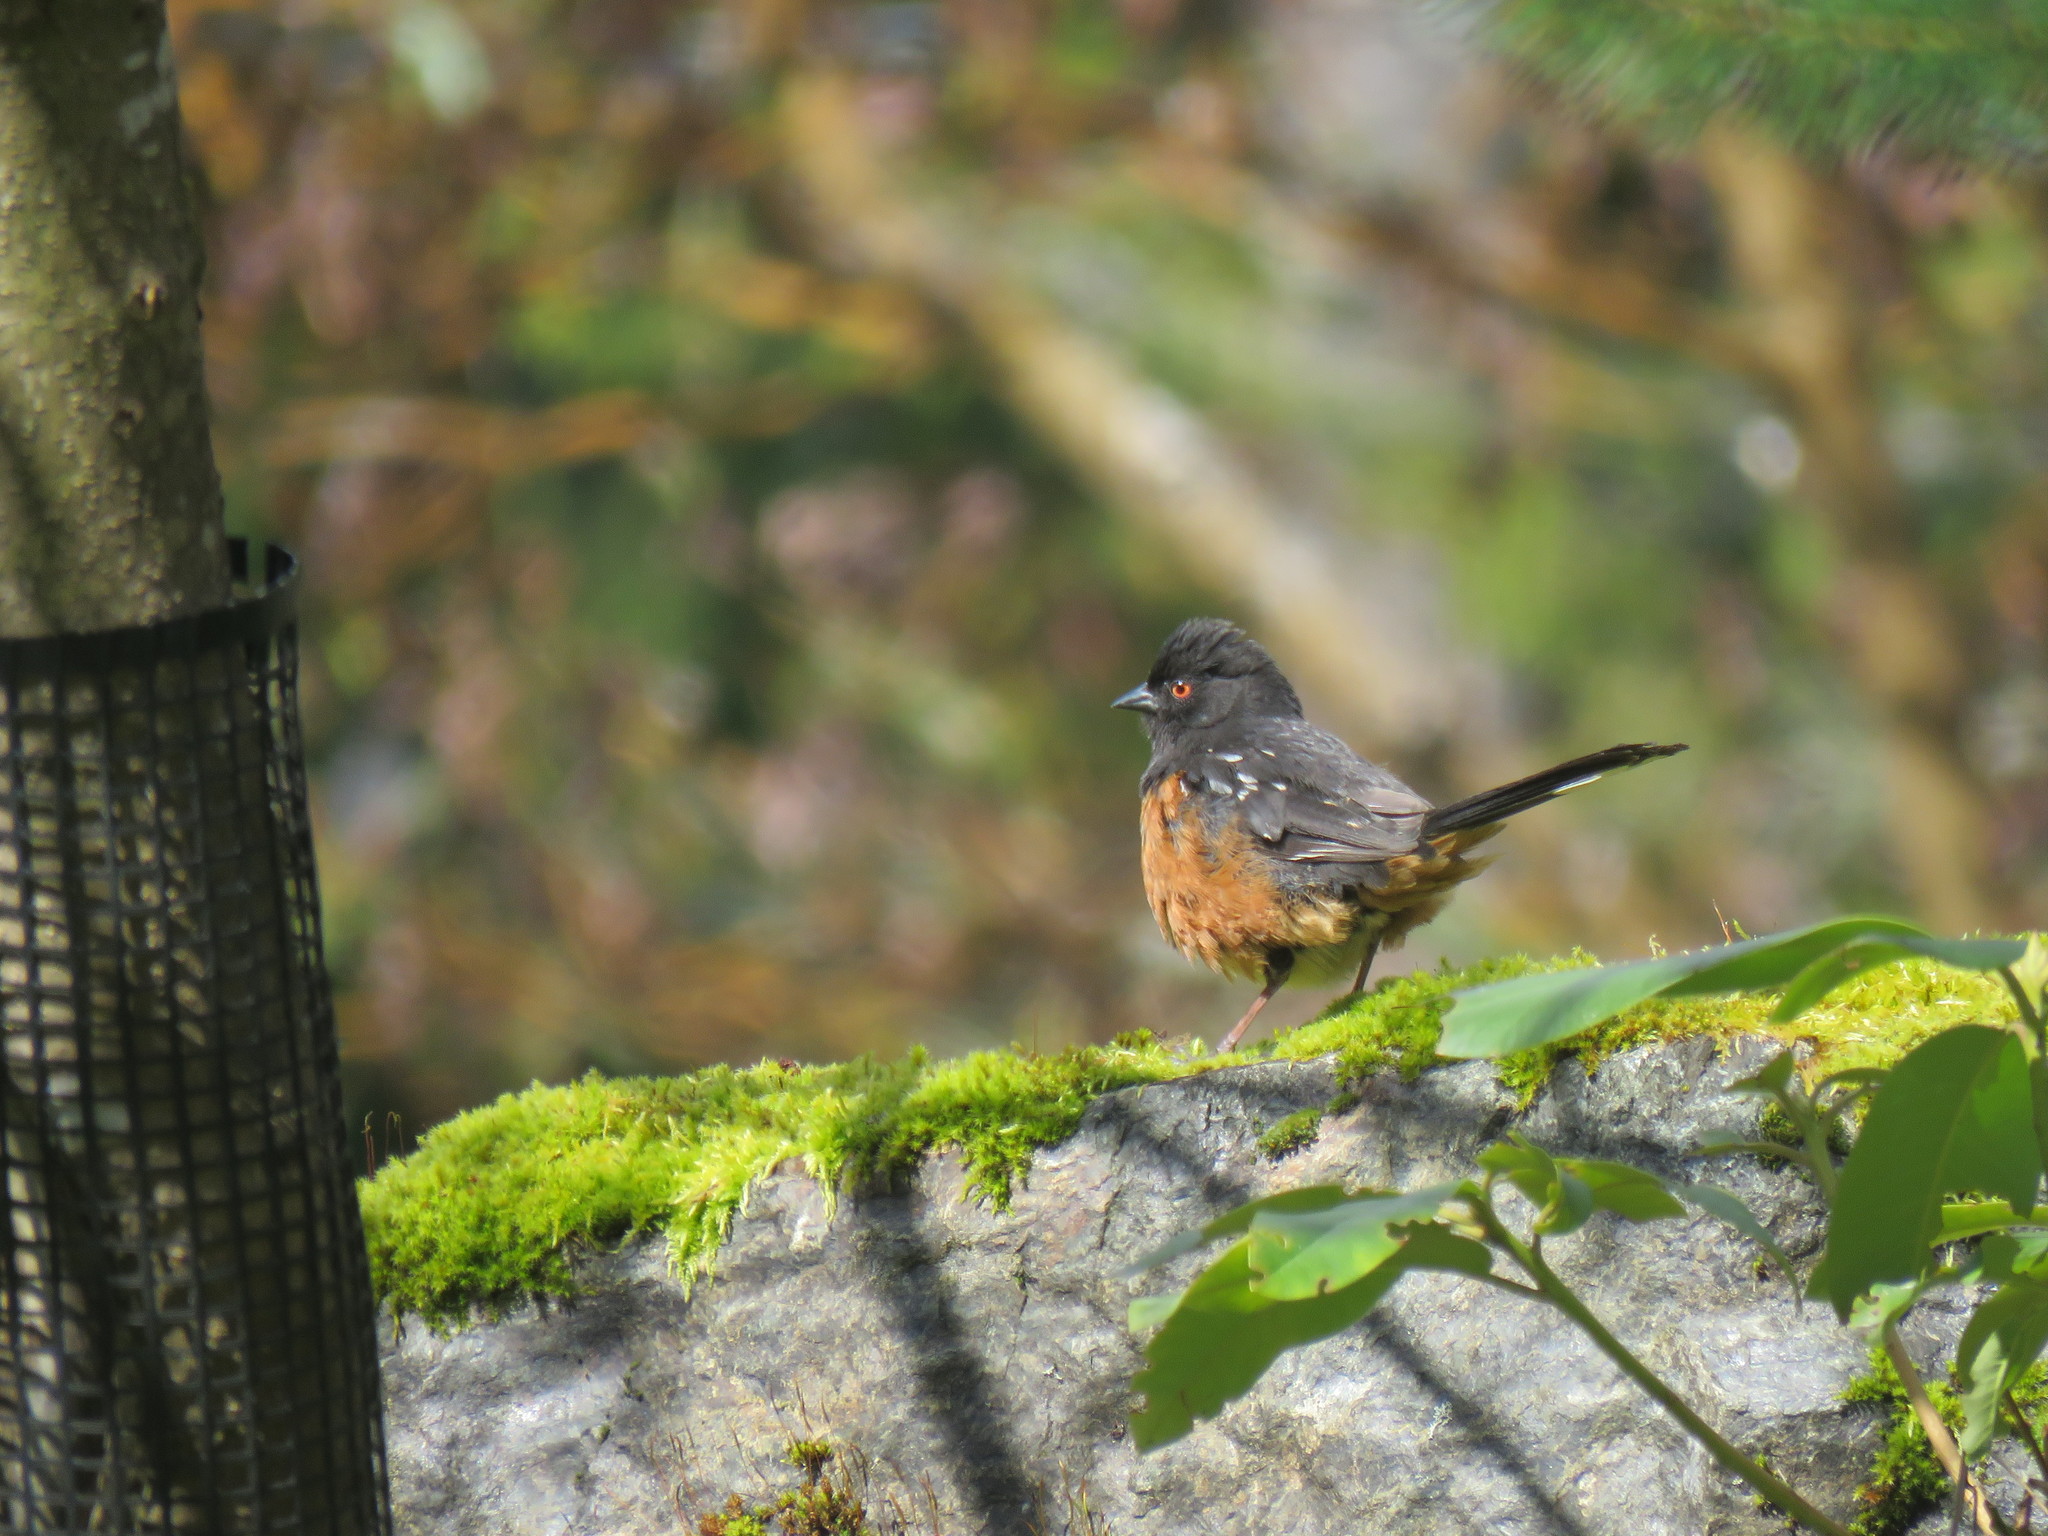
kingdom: Animalia
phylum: Chordata
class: Aves
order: Passeriformes
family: Passerellidae
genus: Pipilo
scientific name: Pipilo maculatus
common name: Spotted towhee
